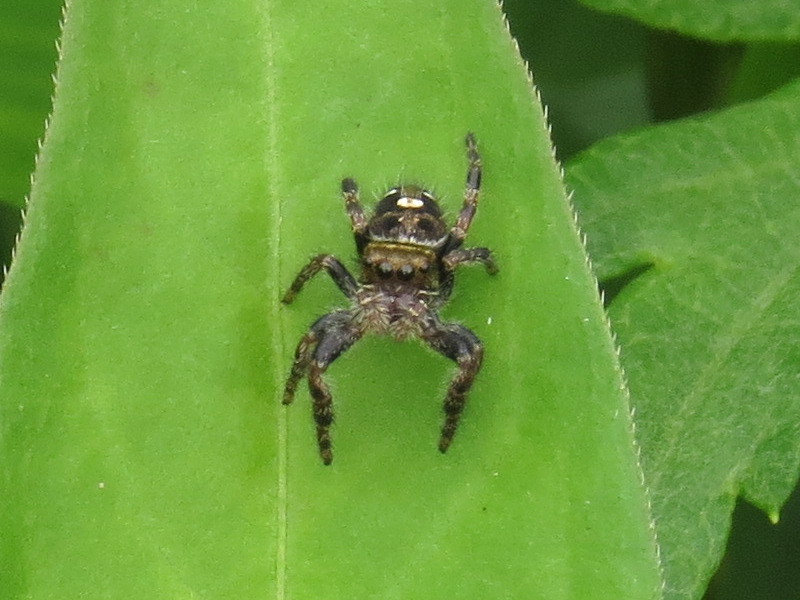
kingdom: Animalia
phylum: Arthropoda
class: Arachnida
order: Araneae
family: Salticidae
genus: Phidippus
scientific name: Phidippus audax
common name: Bold jumper
